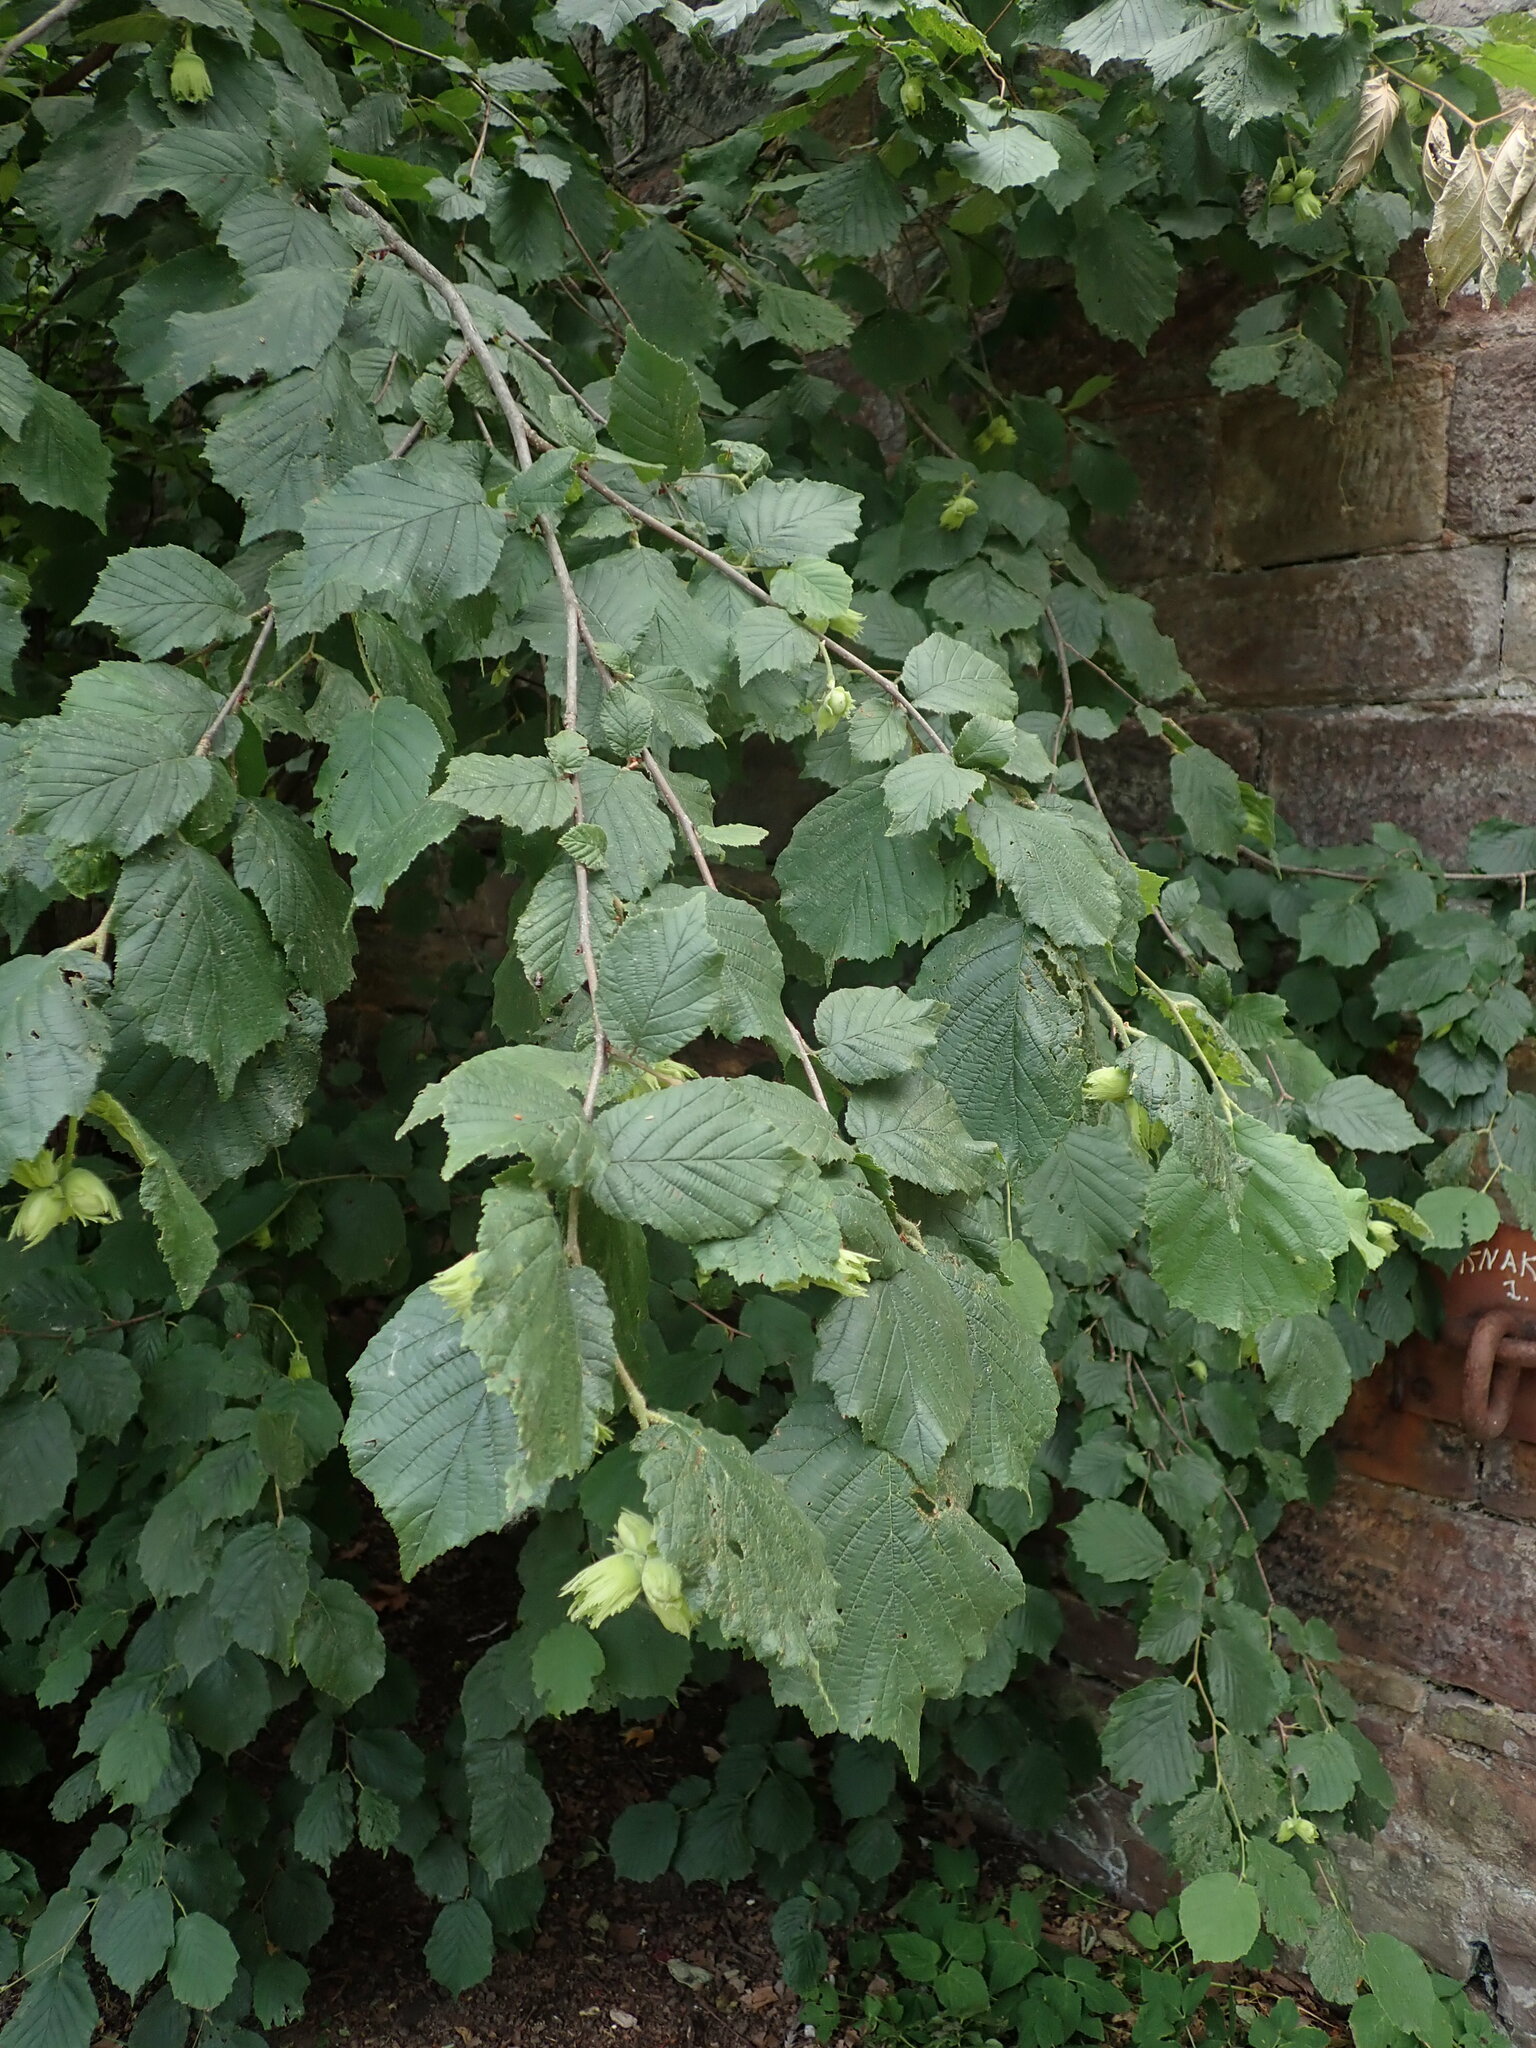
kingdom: Plantae
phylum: Tracheophyta
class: Magnoliopsida
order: Fagales
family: Betulaceae
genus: Corylus
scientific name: Corylus avellana
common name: European hazel
